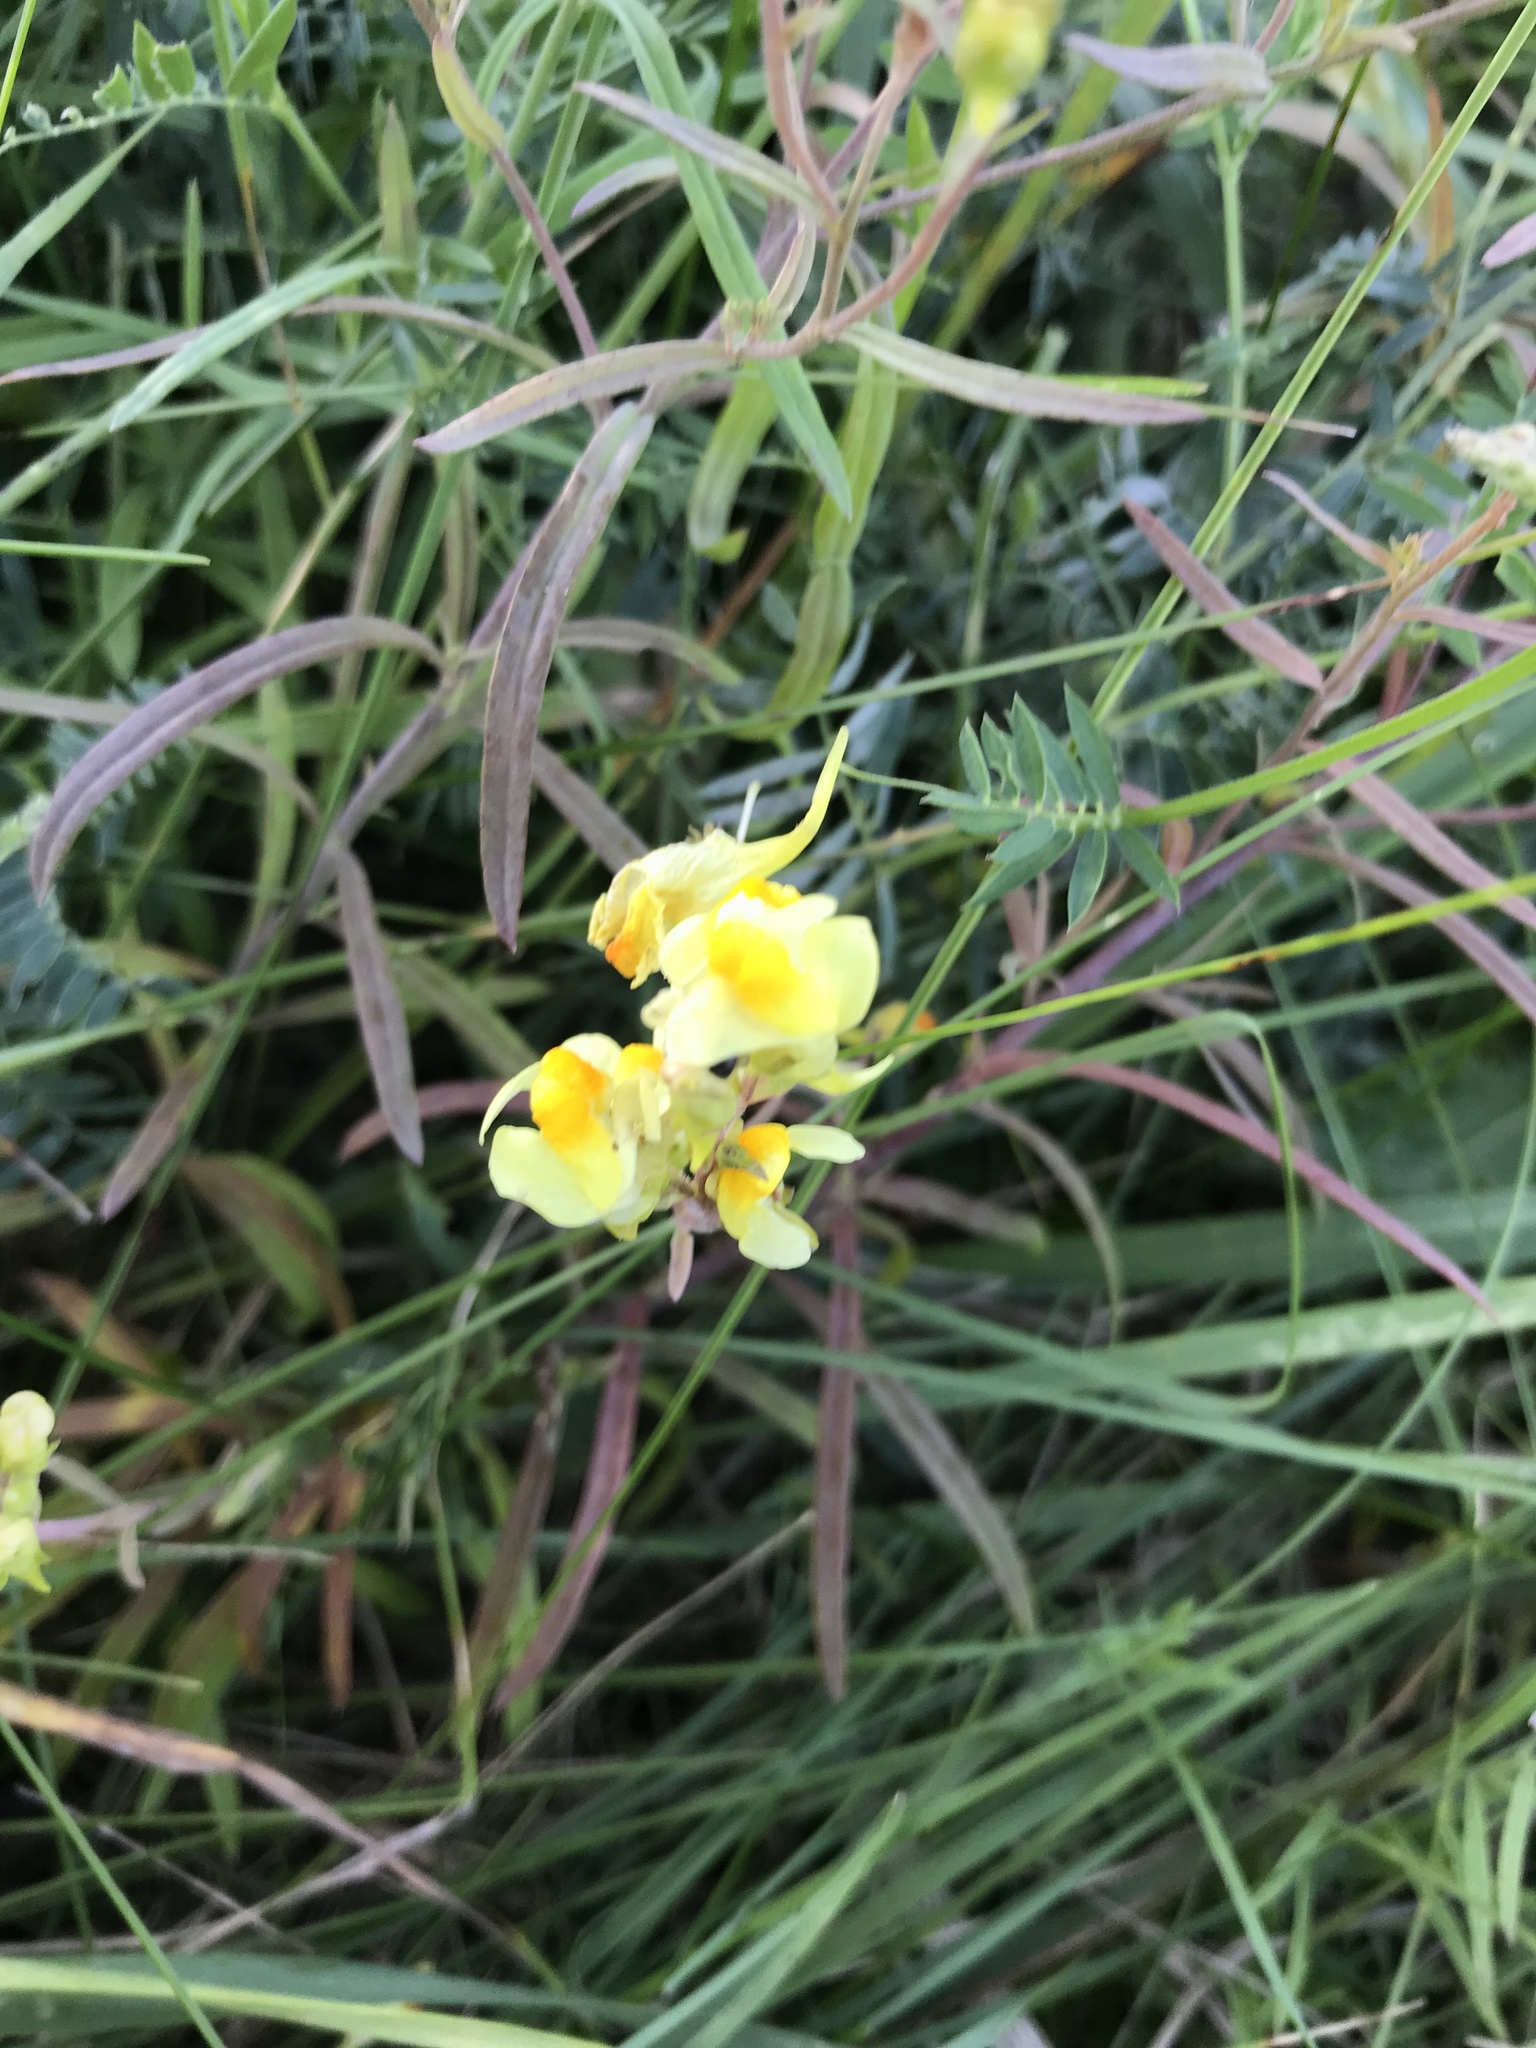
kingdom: Plantae
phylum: Tracheophyta
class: Magnoliopsida
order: Lamiales
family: Plantaginaceae
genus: Linaria
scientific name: Linaria vulgaris
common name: Butter and eggs
